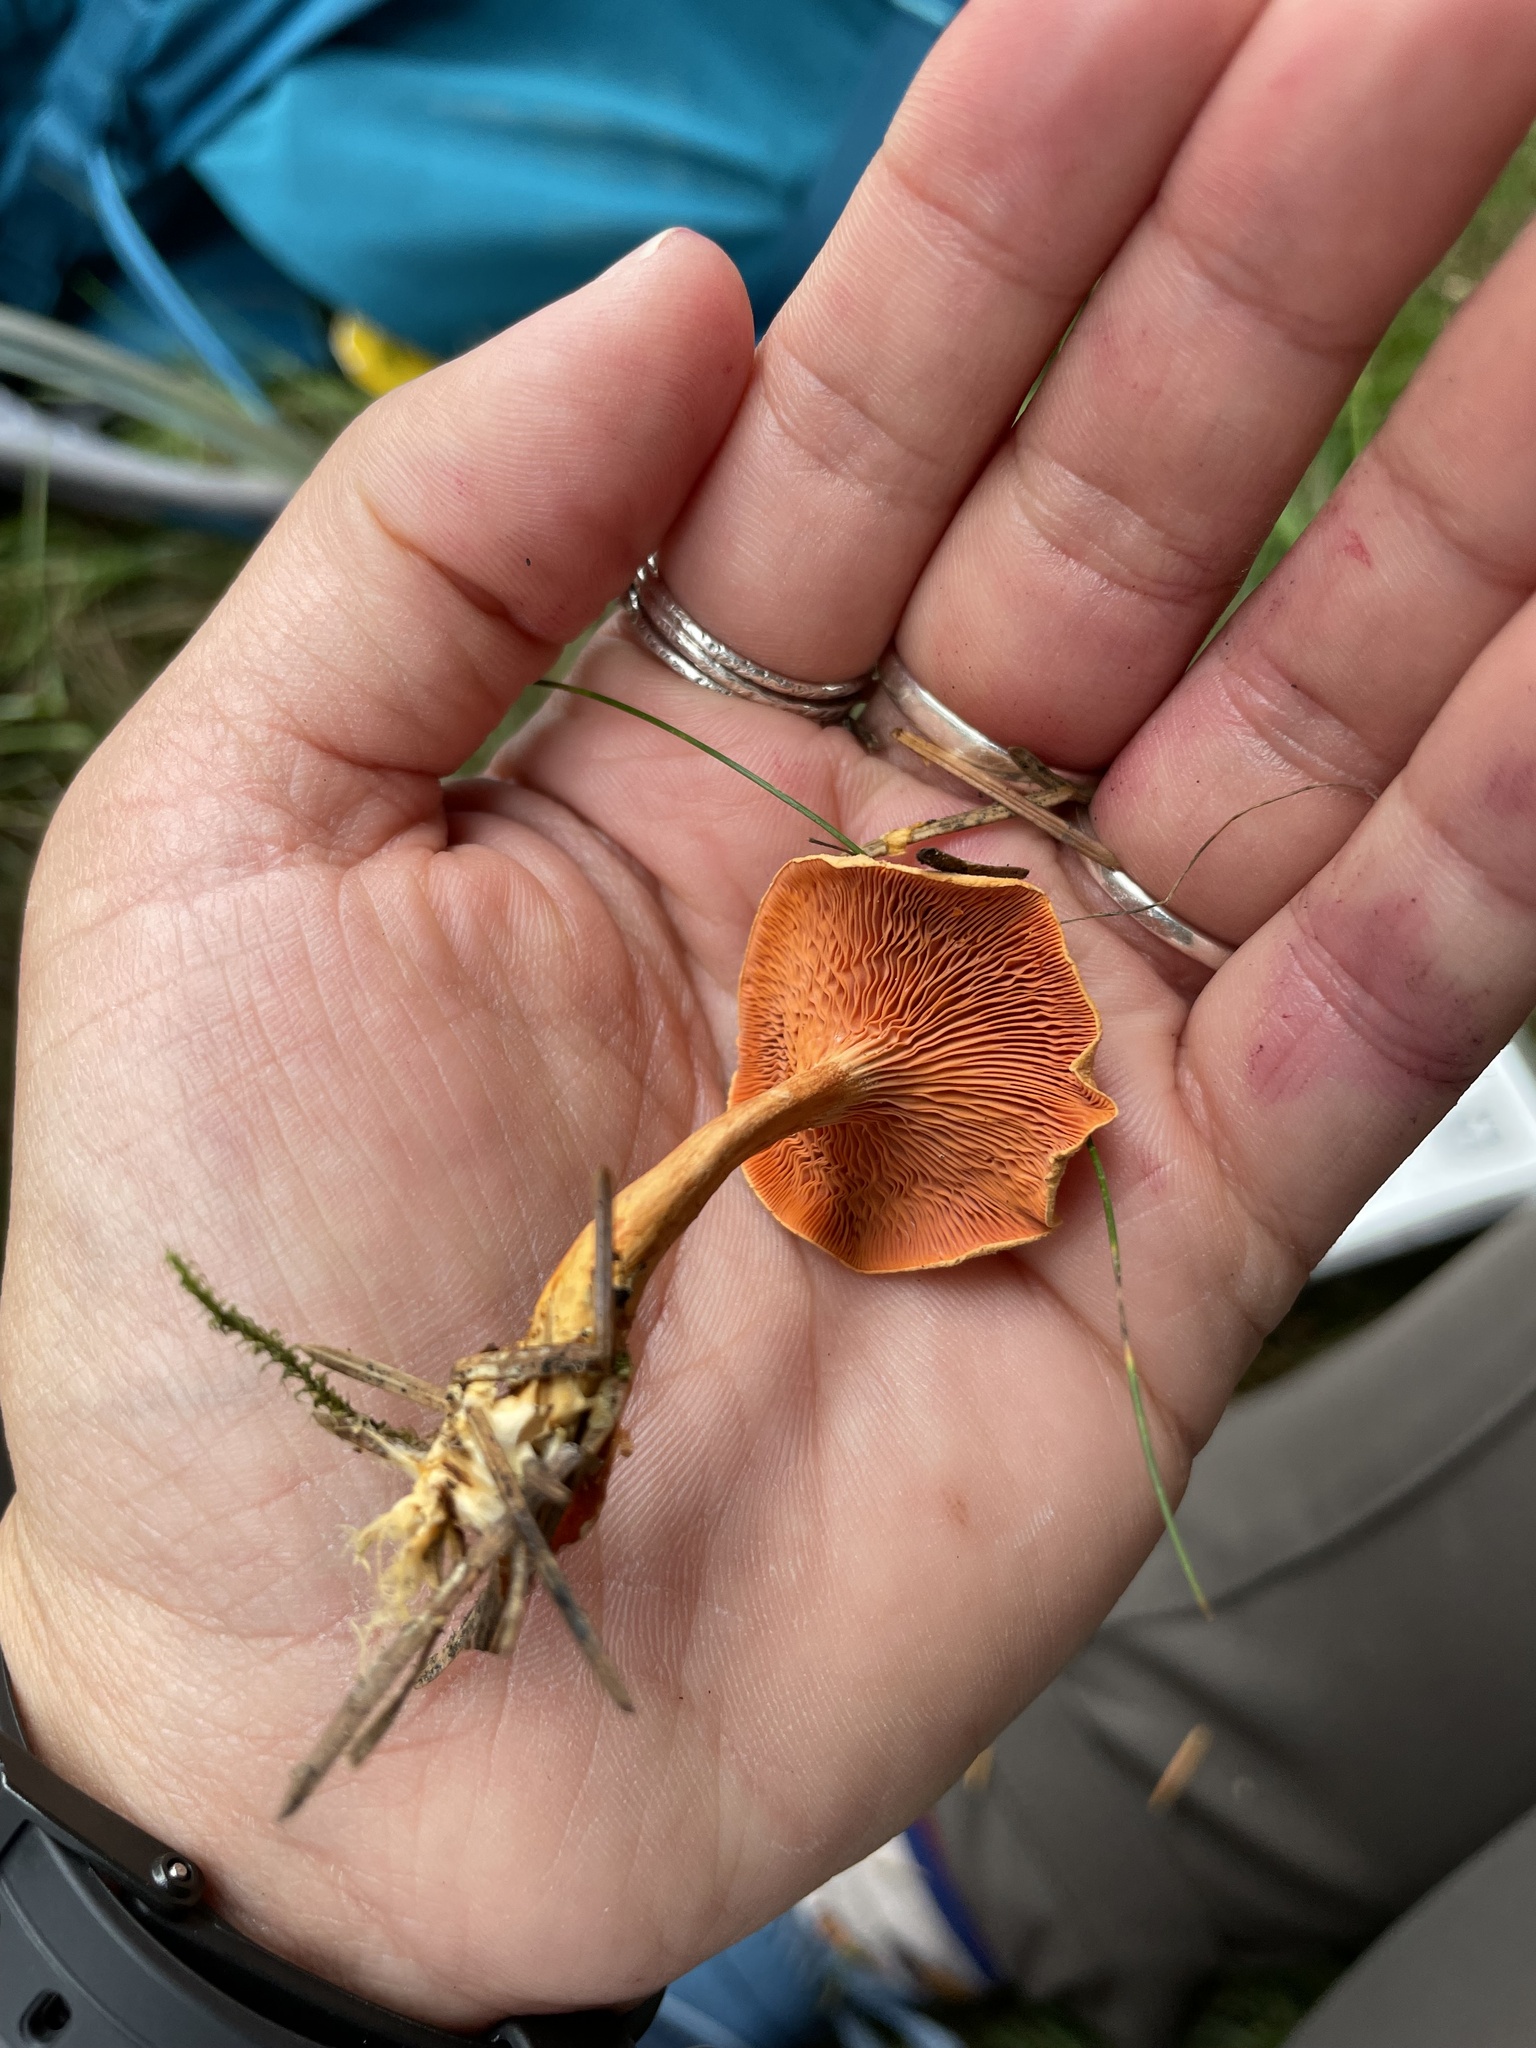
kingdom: Fungi
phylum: Basidiomycota
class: Agaricomycetes
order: Boletales
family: Hygrophoropsidaceae
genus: Hygrophoropsis
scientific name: Hygrophoropsis aurantiaca
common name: False chanterelle
